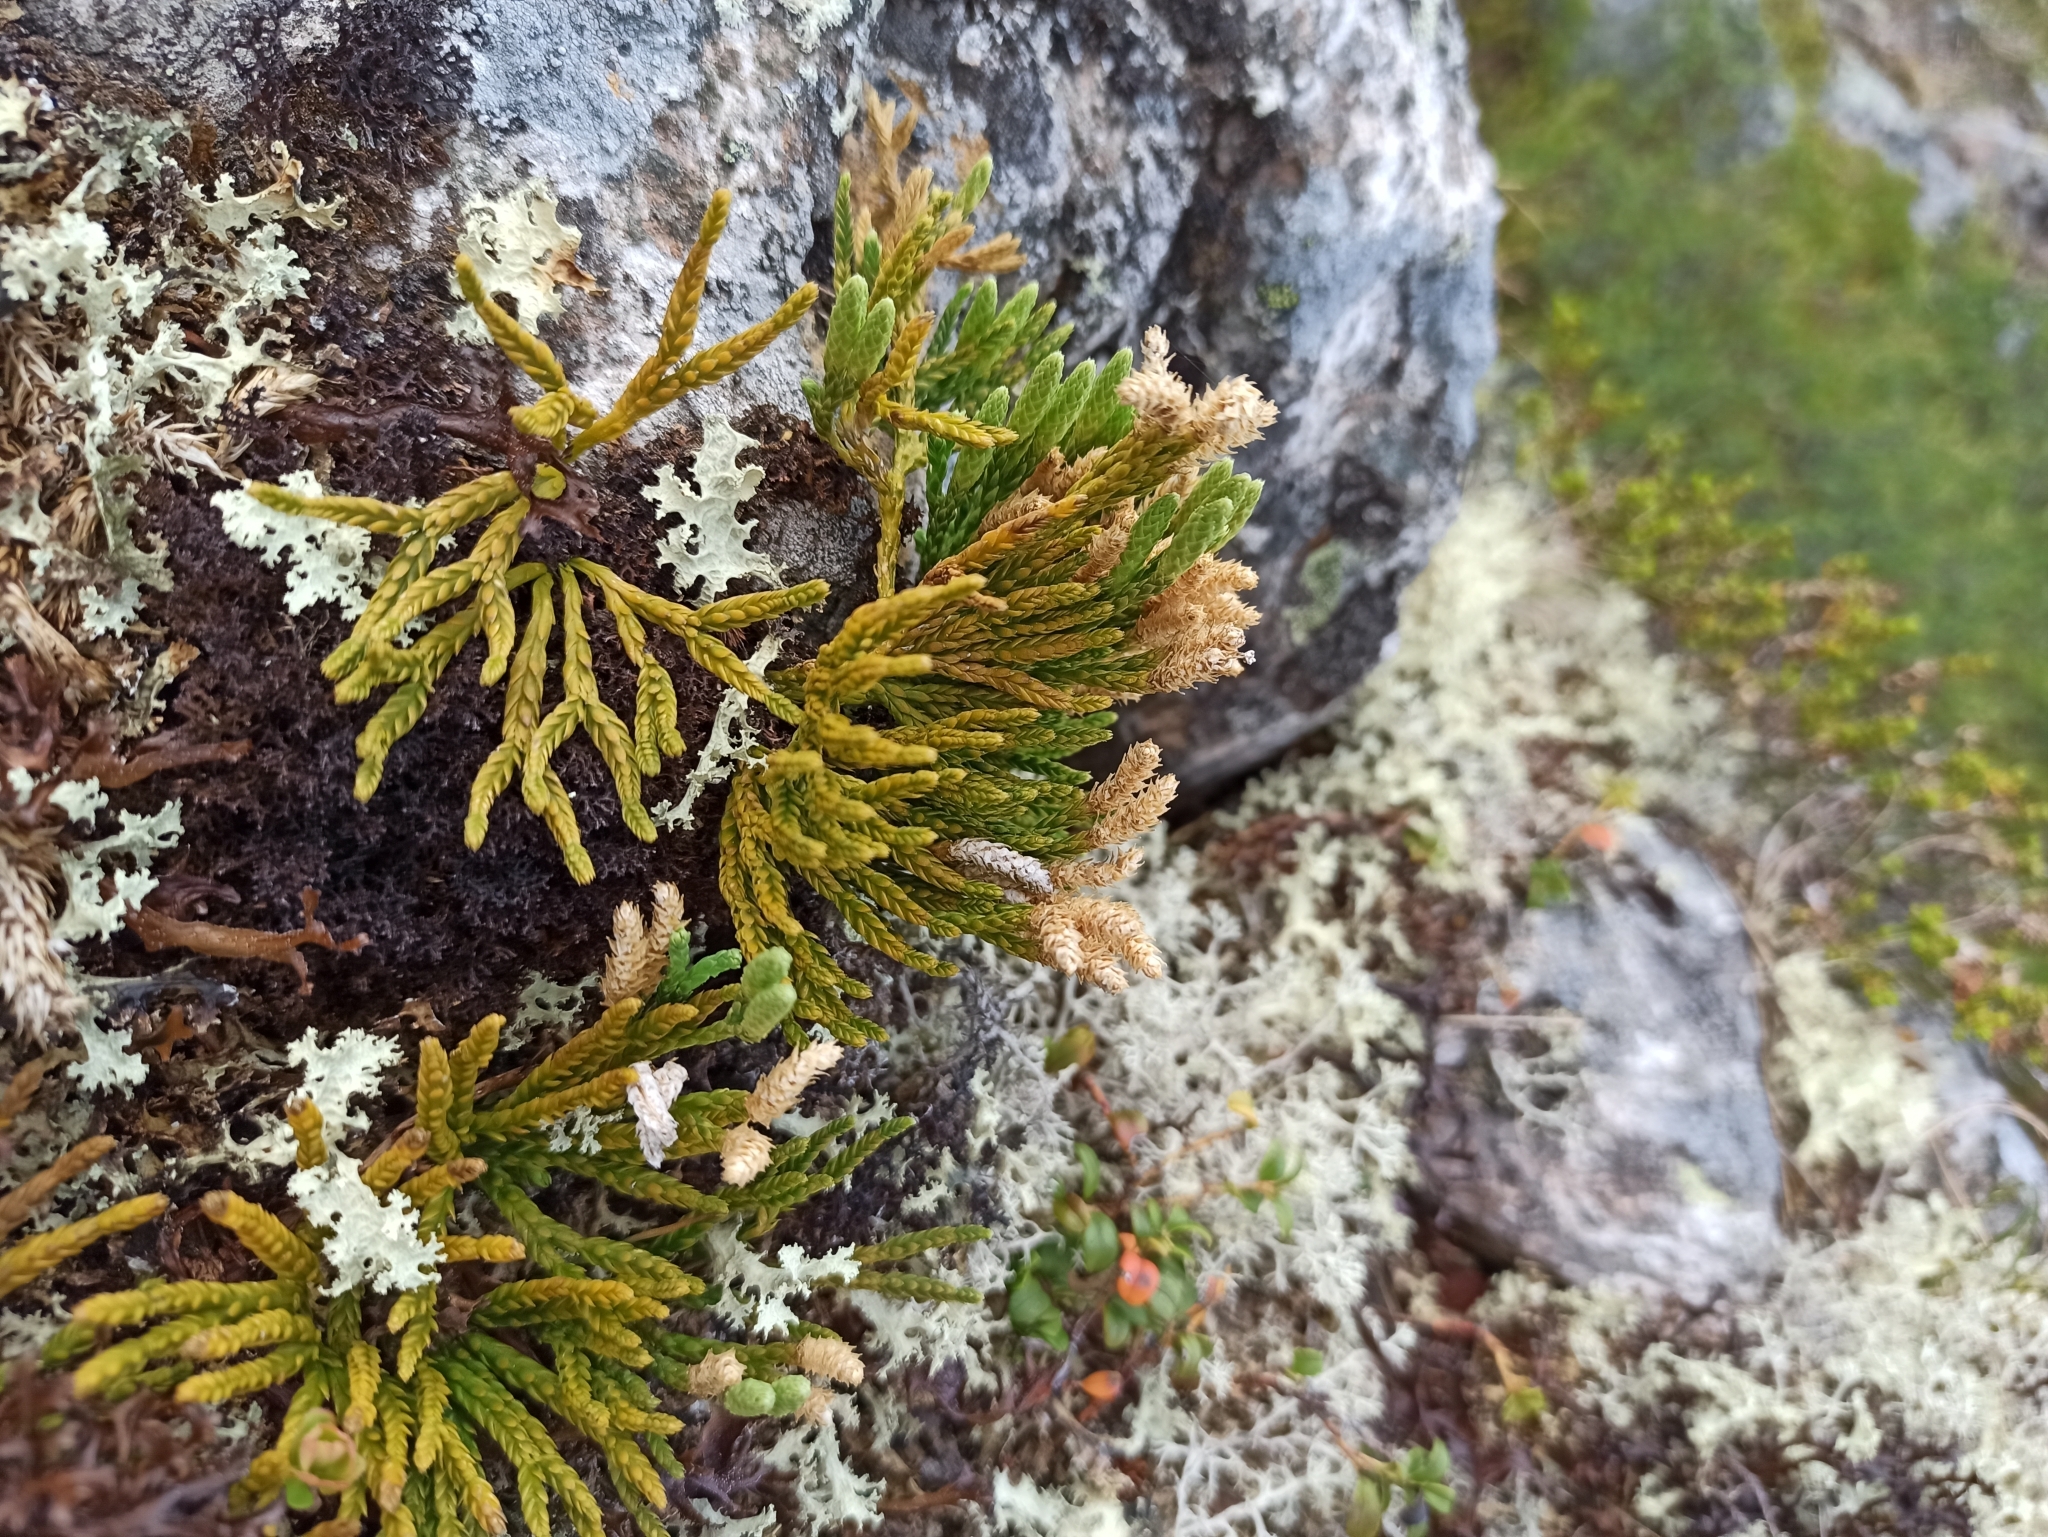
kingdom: Plantae
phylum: Tracheophyta
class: Lycopodiopsida
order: Lycopodiales
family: Lycopodiaceae
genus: Diphasiastrum
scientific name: Diphasiastrum alpinum
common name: Alpine clubmoss
